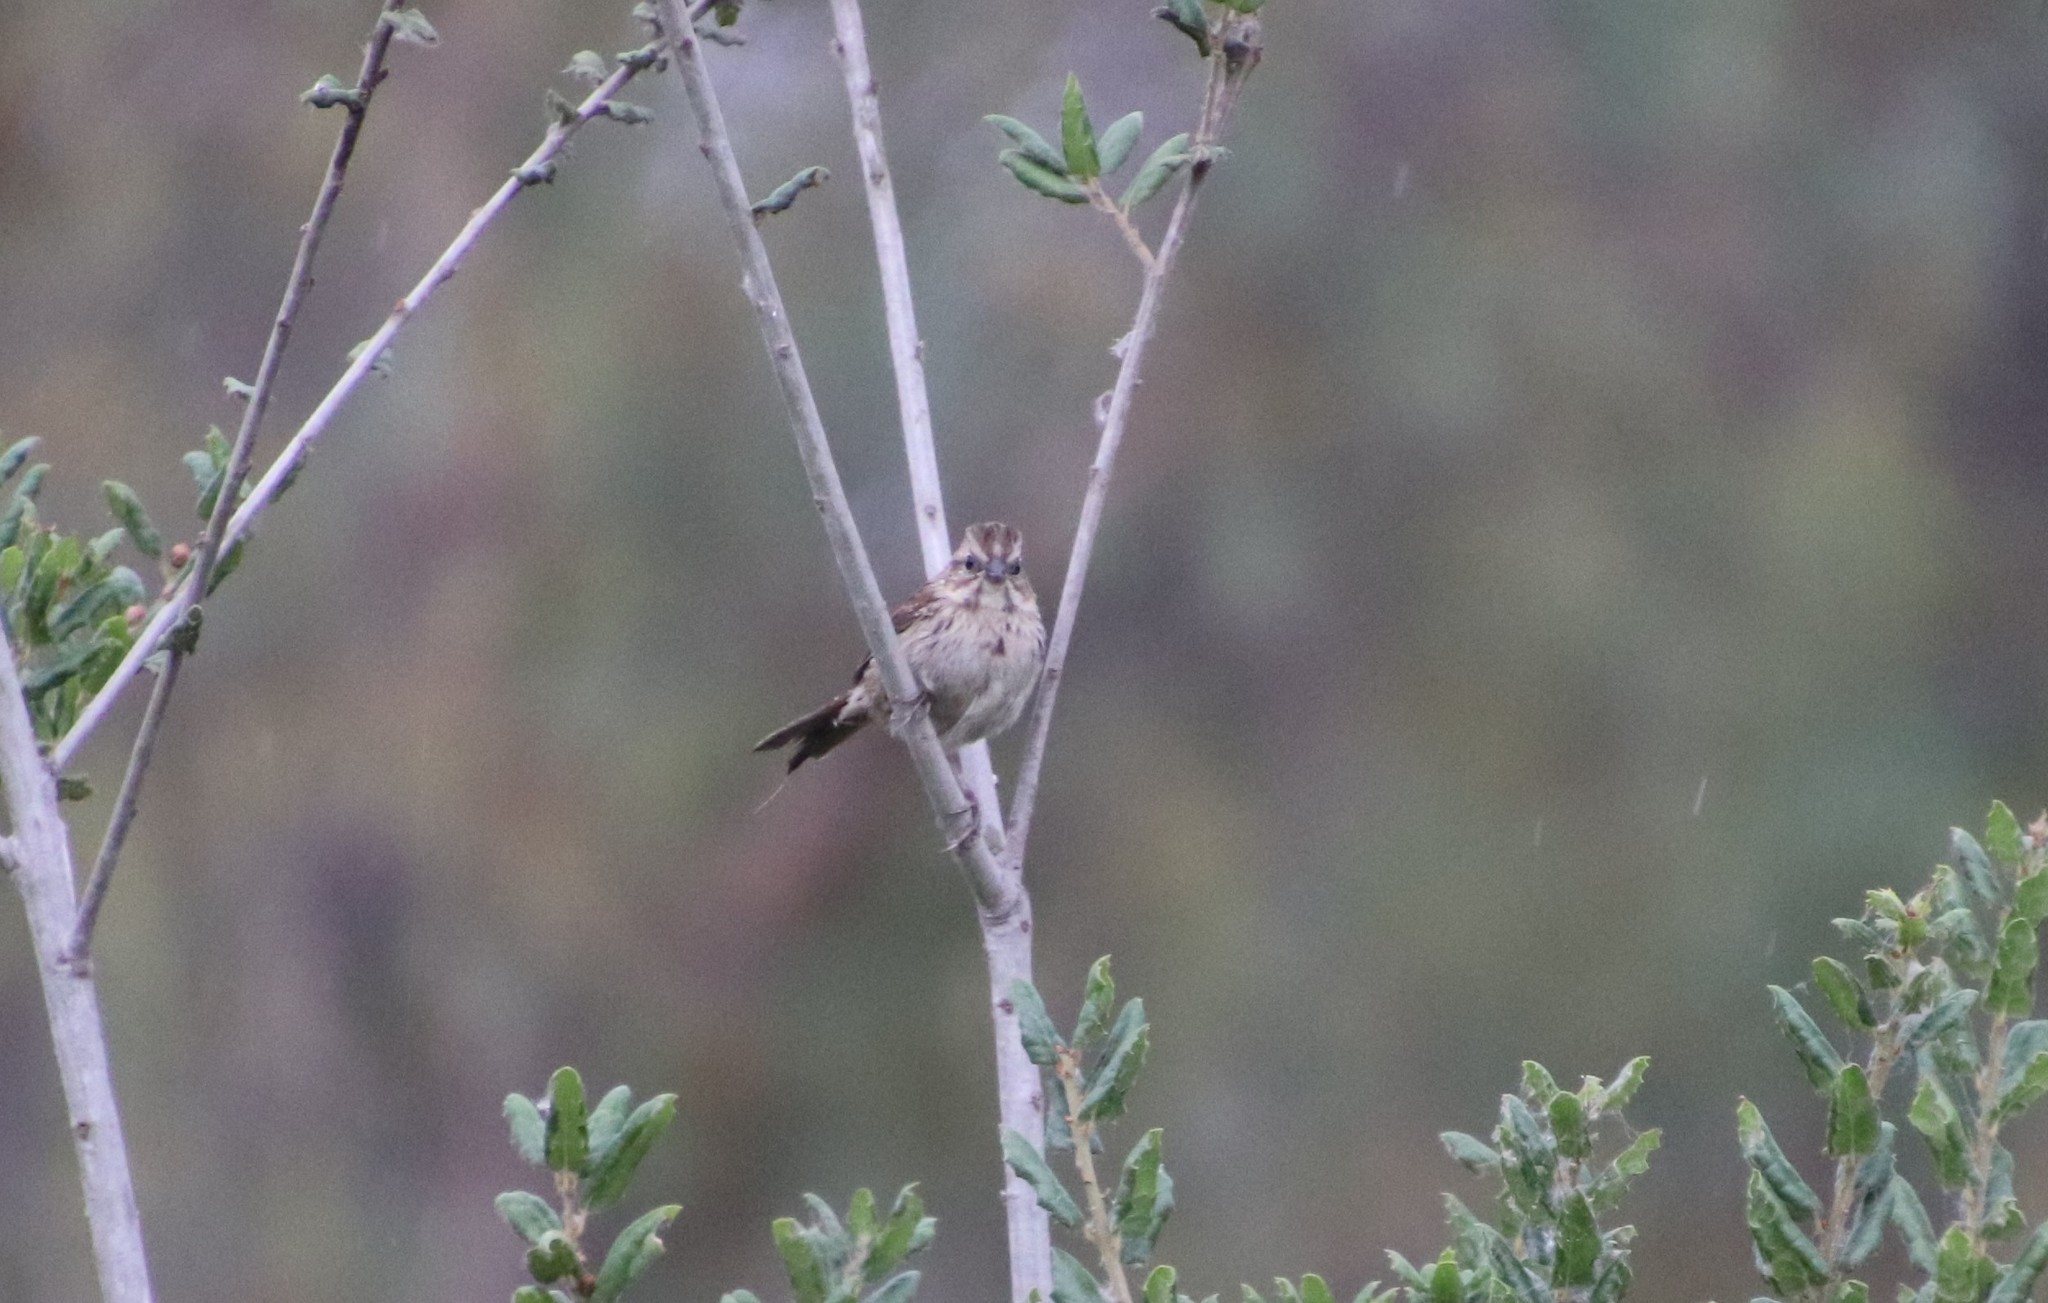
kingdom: Animalia
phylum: Chordata
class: Aves
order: Passeriformes
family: Passerellidae
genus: Melospiza
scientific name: Melospiza melodia
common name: Song sparrow
